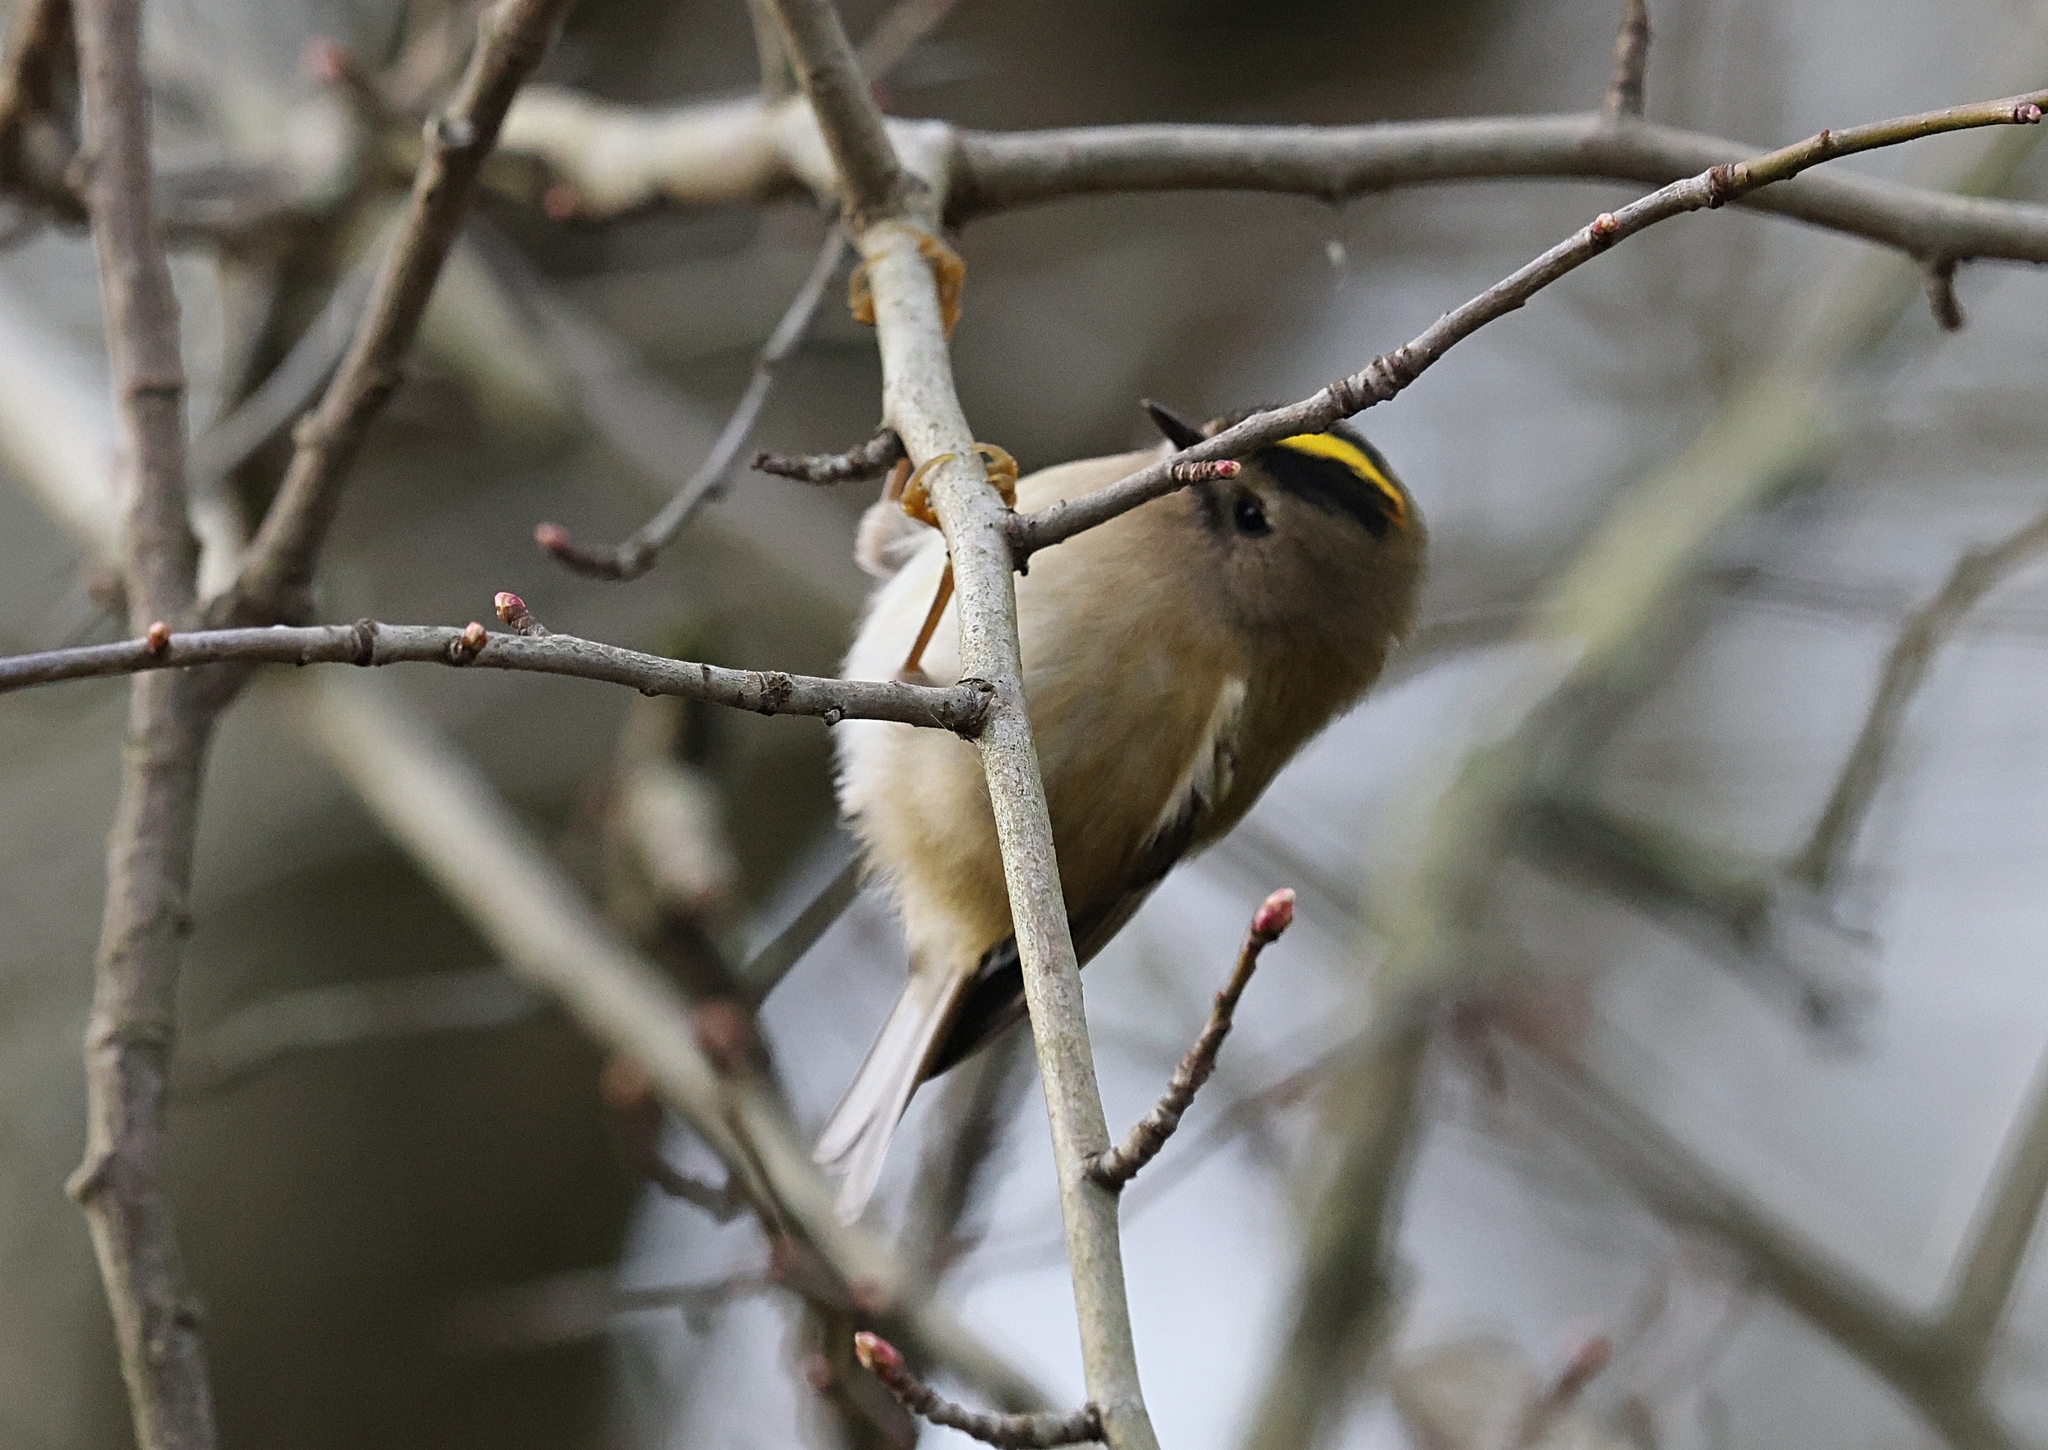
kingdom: Animalia
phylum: Chordata
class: Aves
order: Passeriformes
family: Regulidae
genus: Regulus
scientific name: Regulus regulus
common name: Goldcrest
